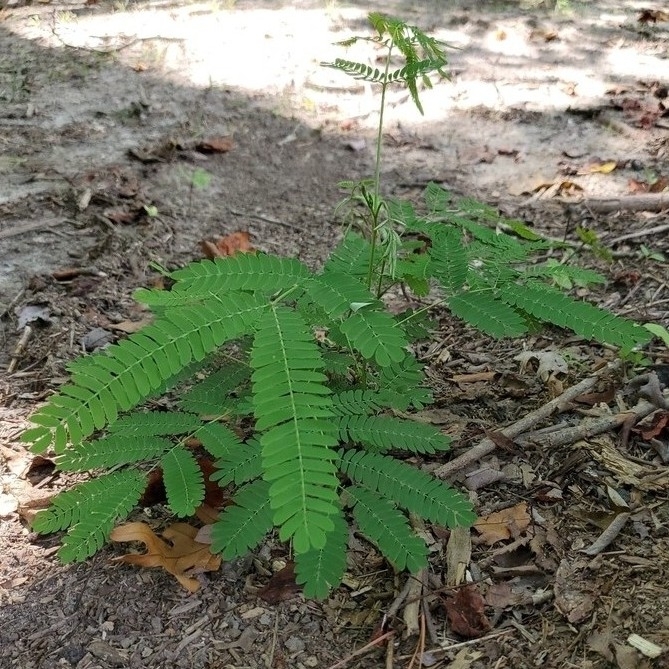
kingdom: Plantae
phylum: Tracheophyta
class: Magnoliopsida
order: Fabales
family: Fabaceae
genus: Albizia
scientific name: Albizia julibrissin
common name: Silktree
